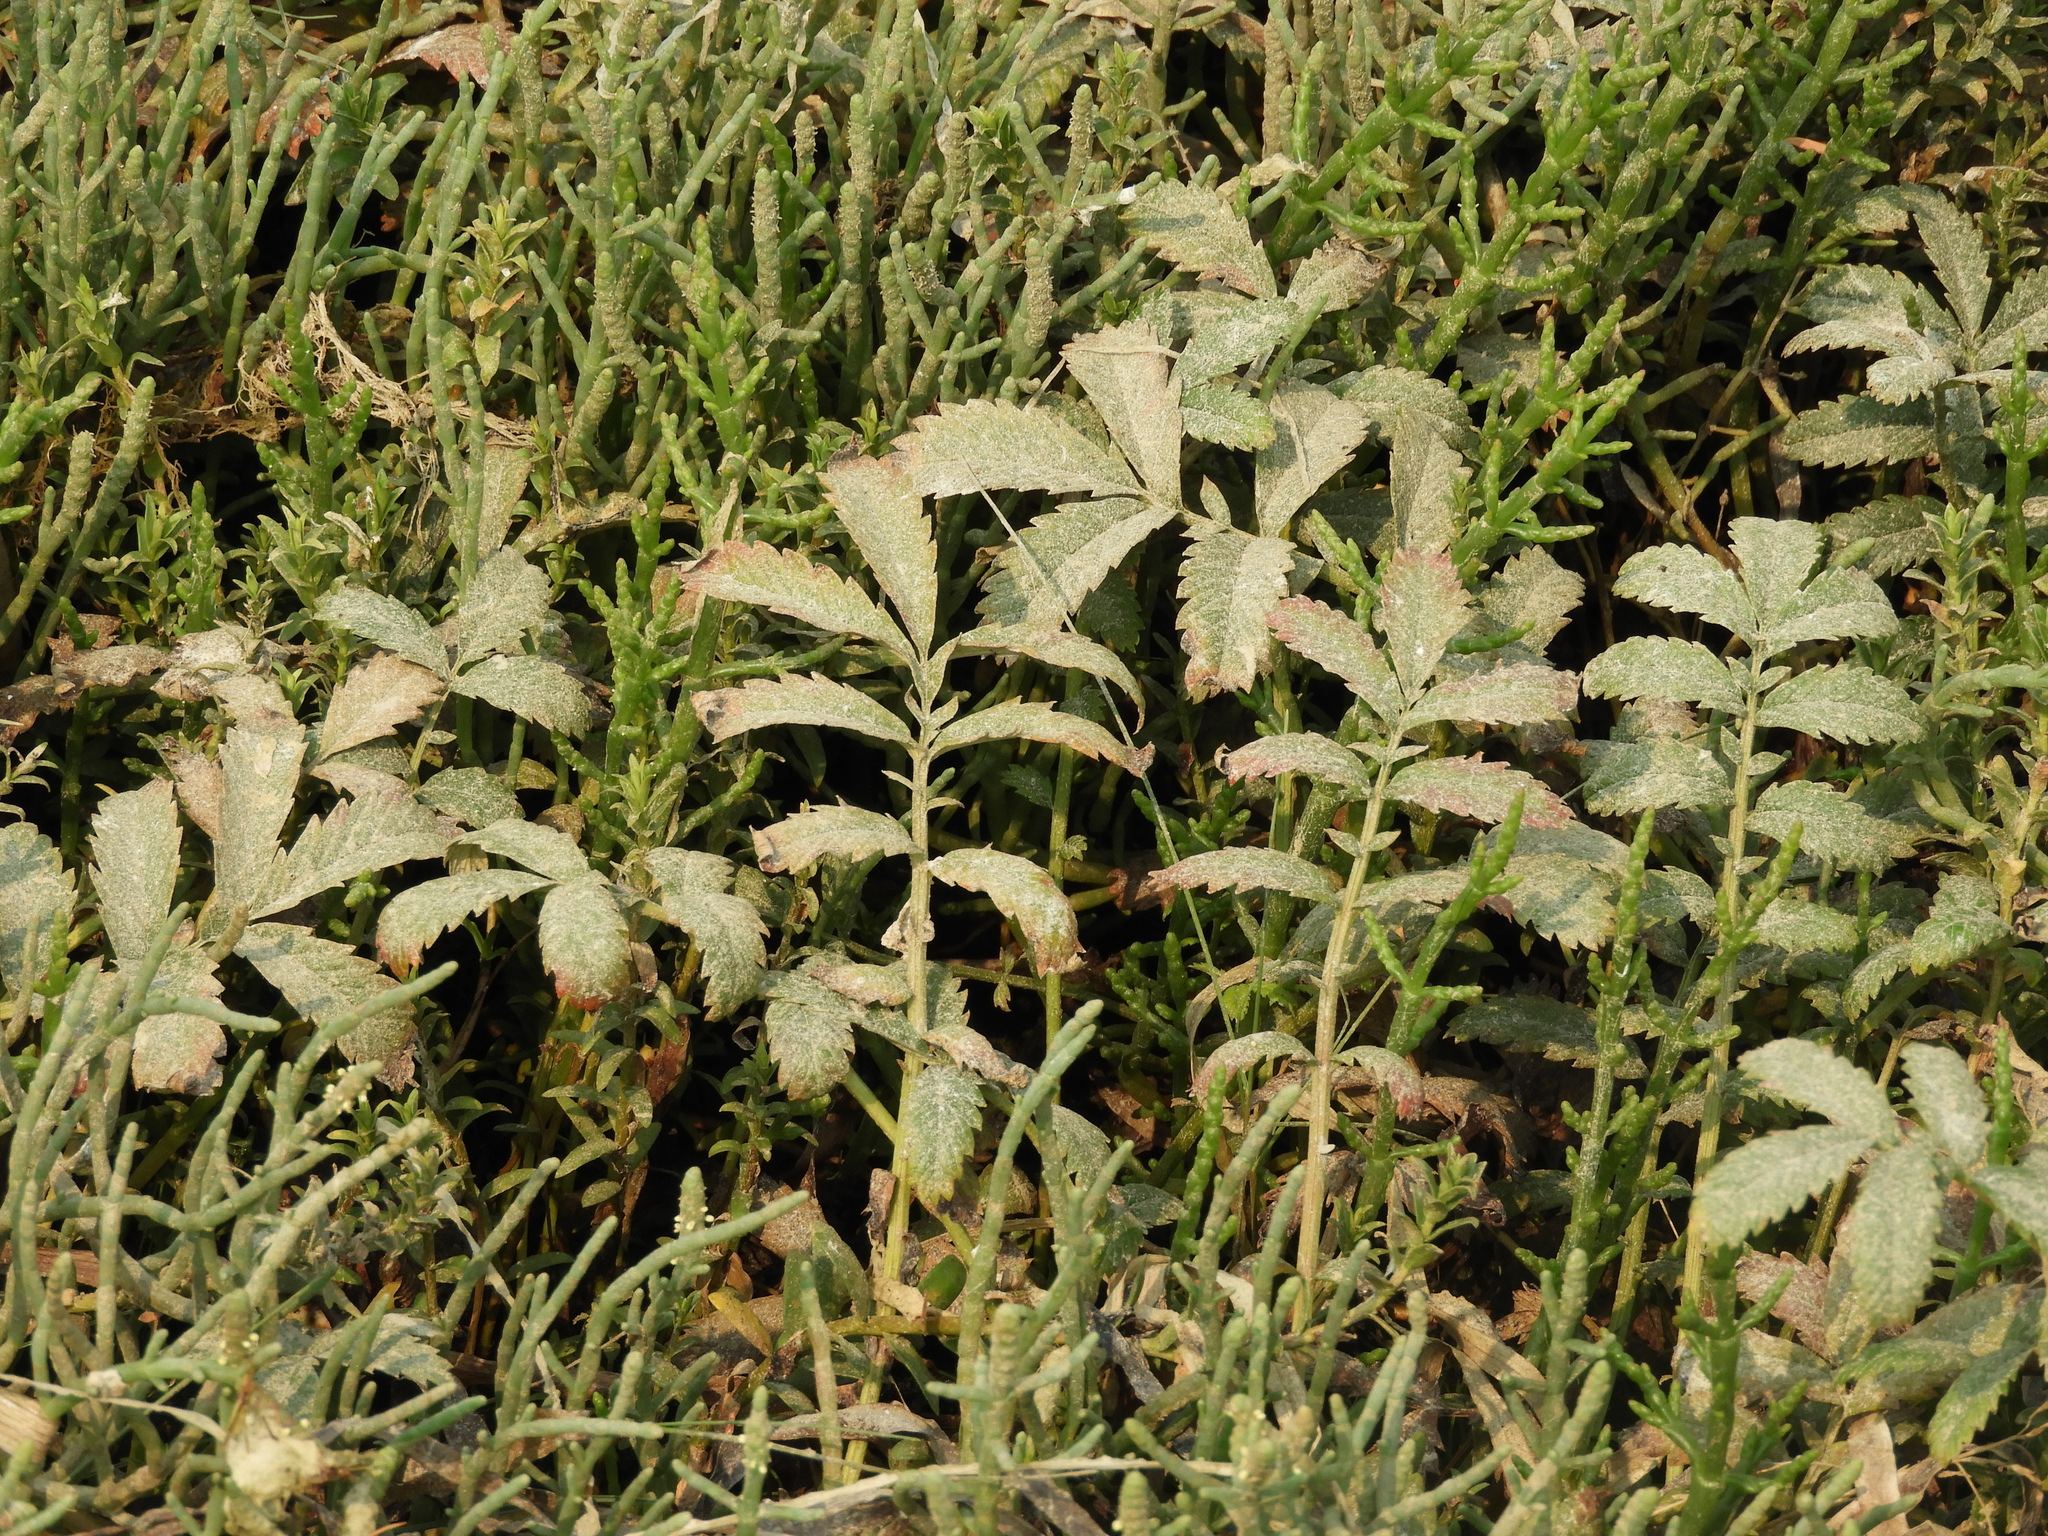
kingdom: Plantae
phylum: Tracheophyta
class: Magnoliopsida
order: Rosales
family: Rosaceae
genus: Argentina
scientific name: Argentina anserina
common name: Common silverweed
